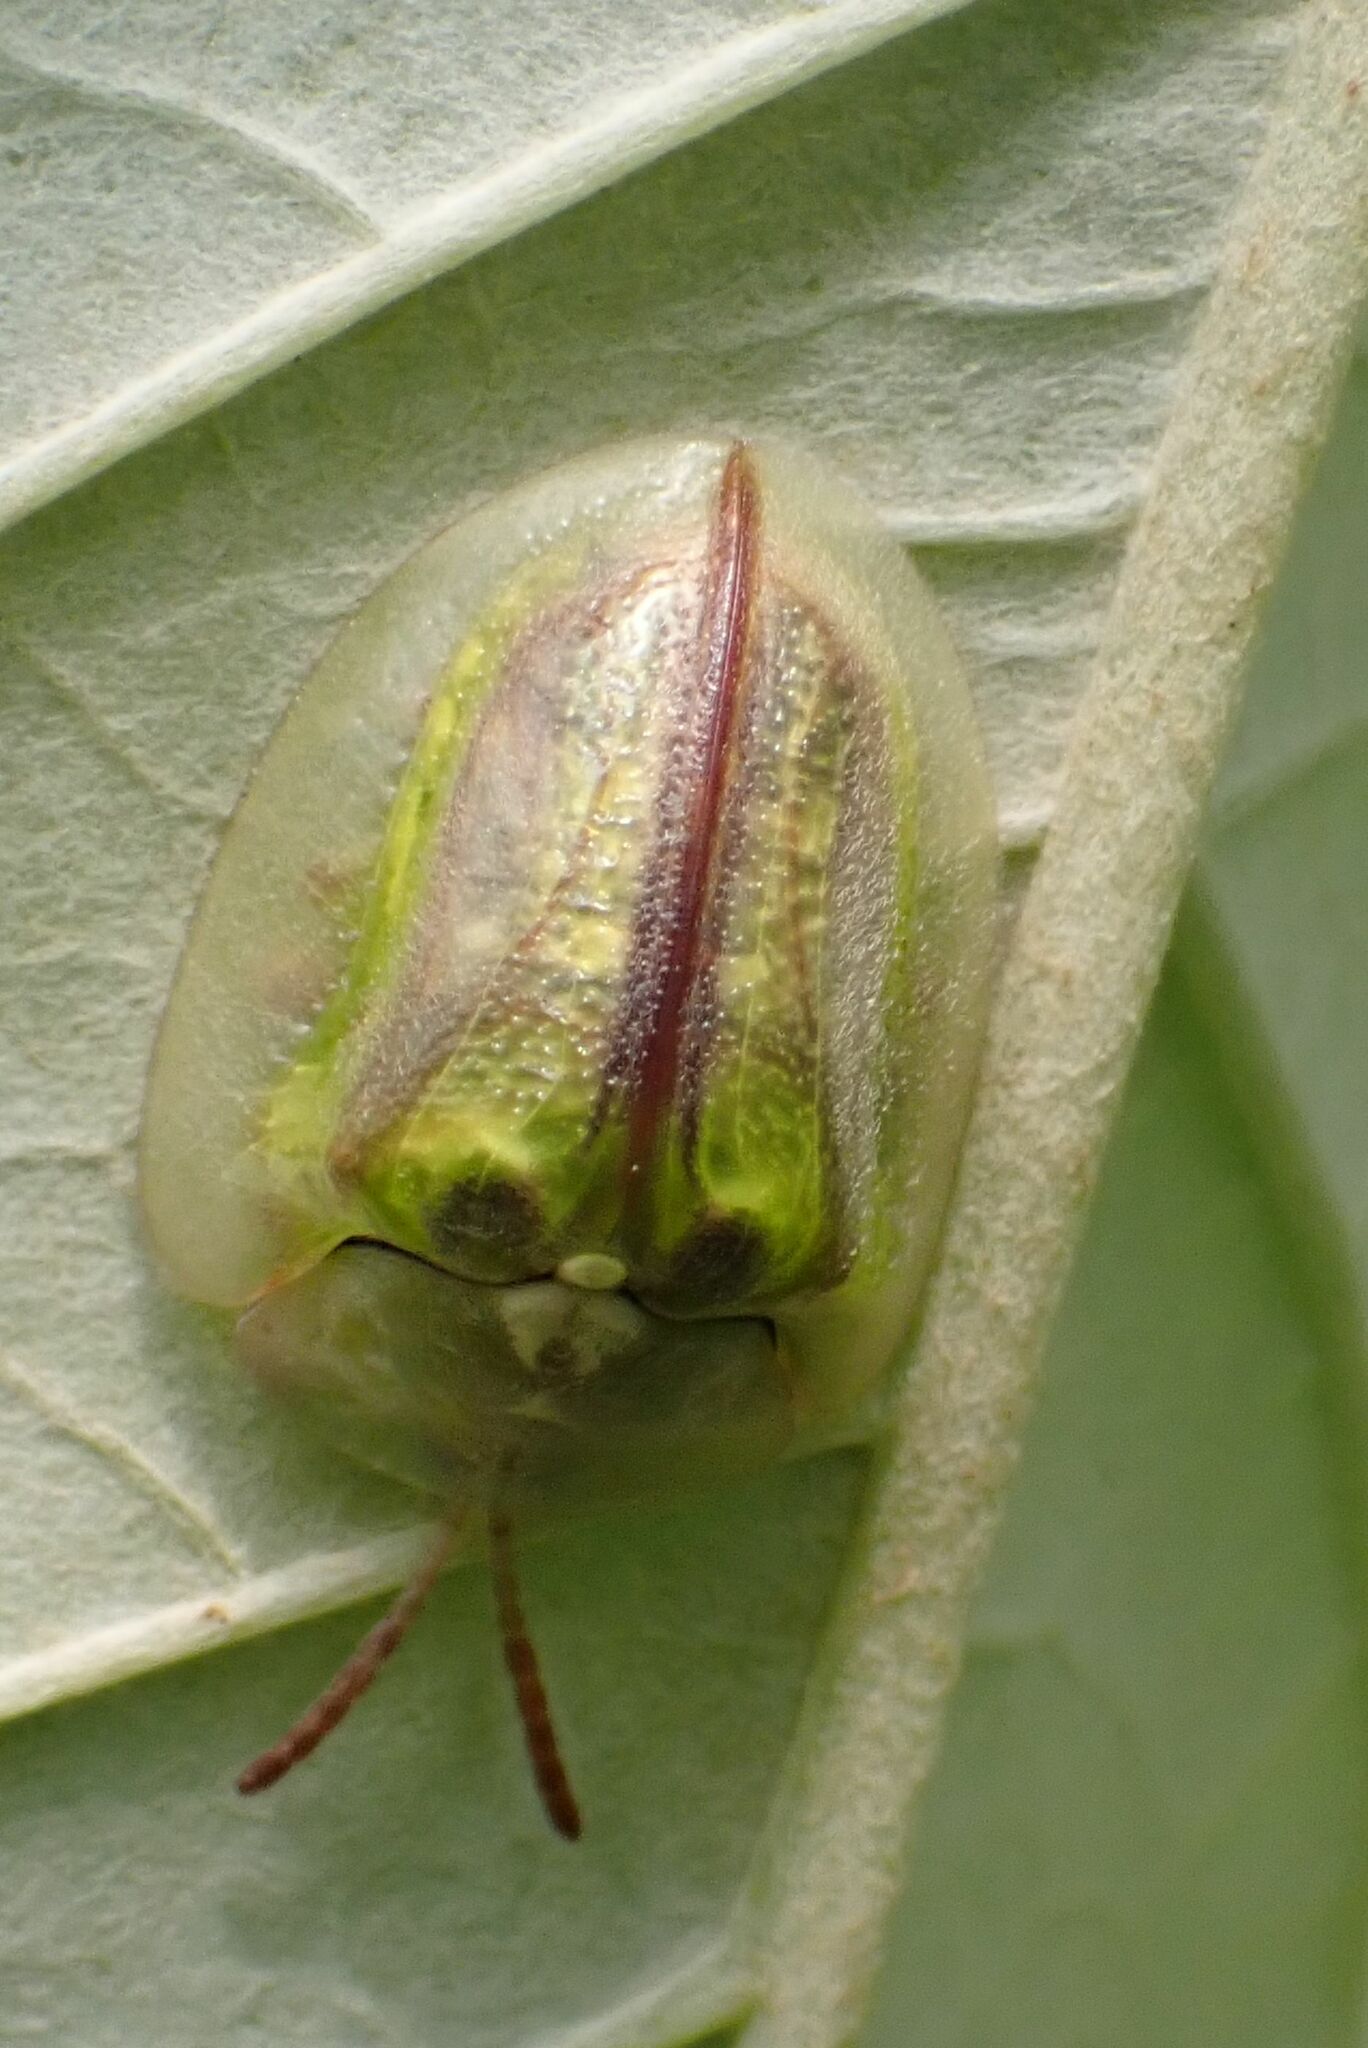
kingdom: Animalia
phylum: Arthropoda
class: Insecta
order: Coleoptera
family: Chrysomelidae
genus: Basipta
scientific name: Basipta stolida
